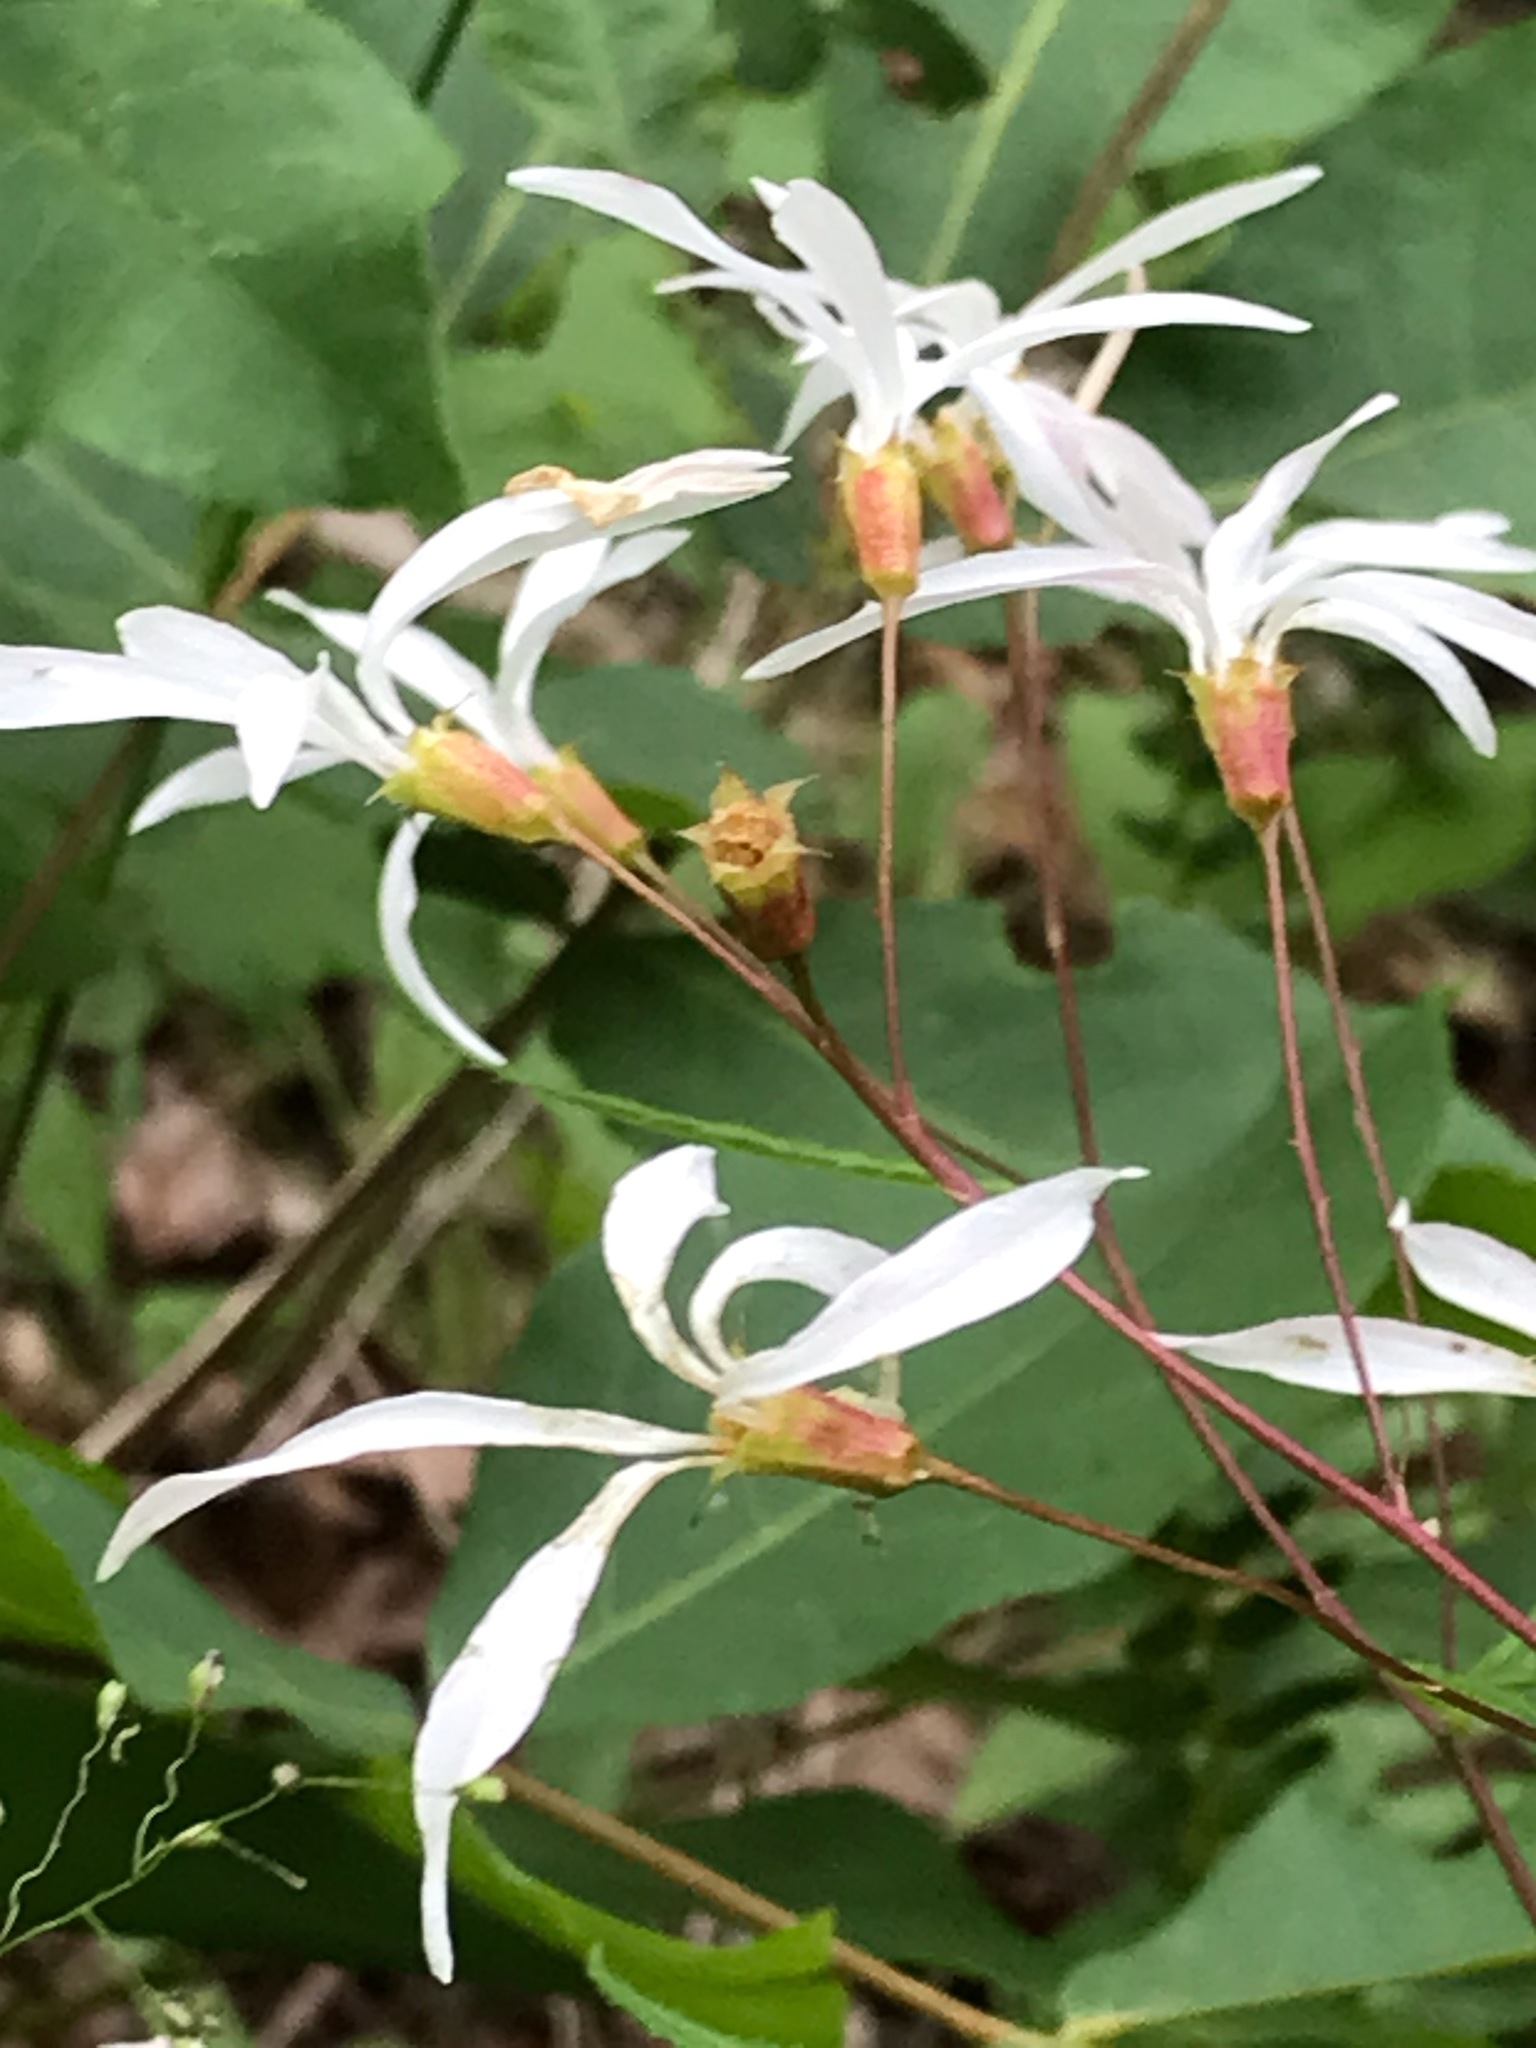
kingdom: Plantae
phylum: Tracheophyta
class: Magnoliopsida
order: Rosales
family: Rosaceae
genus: Gillenia
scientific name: Gillenia trifoliata
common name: Bowman's-root
